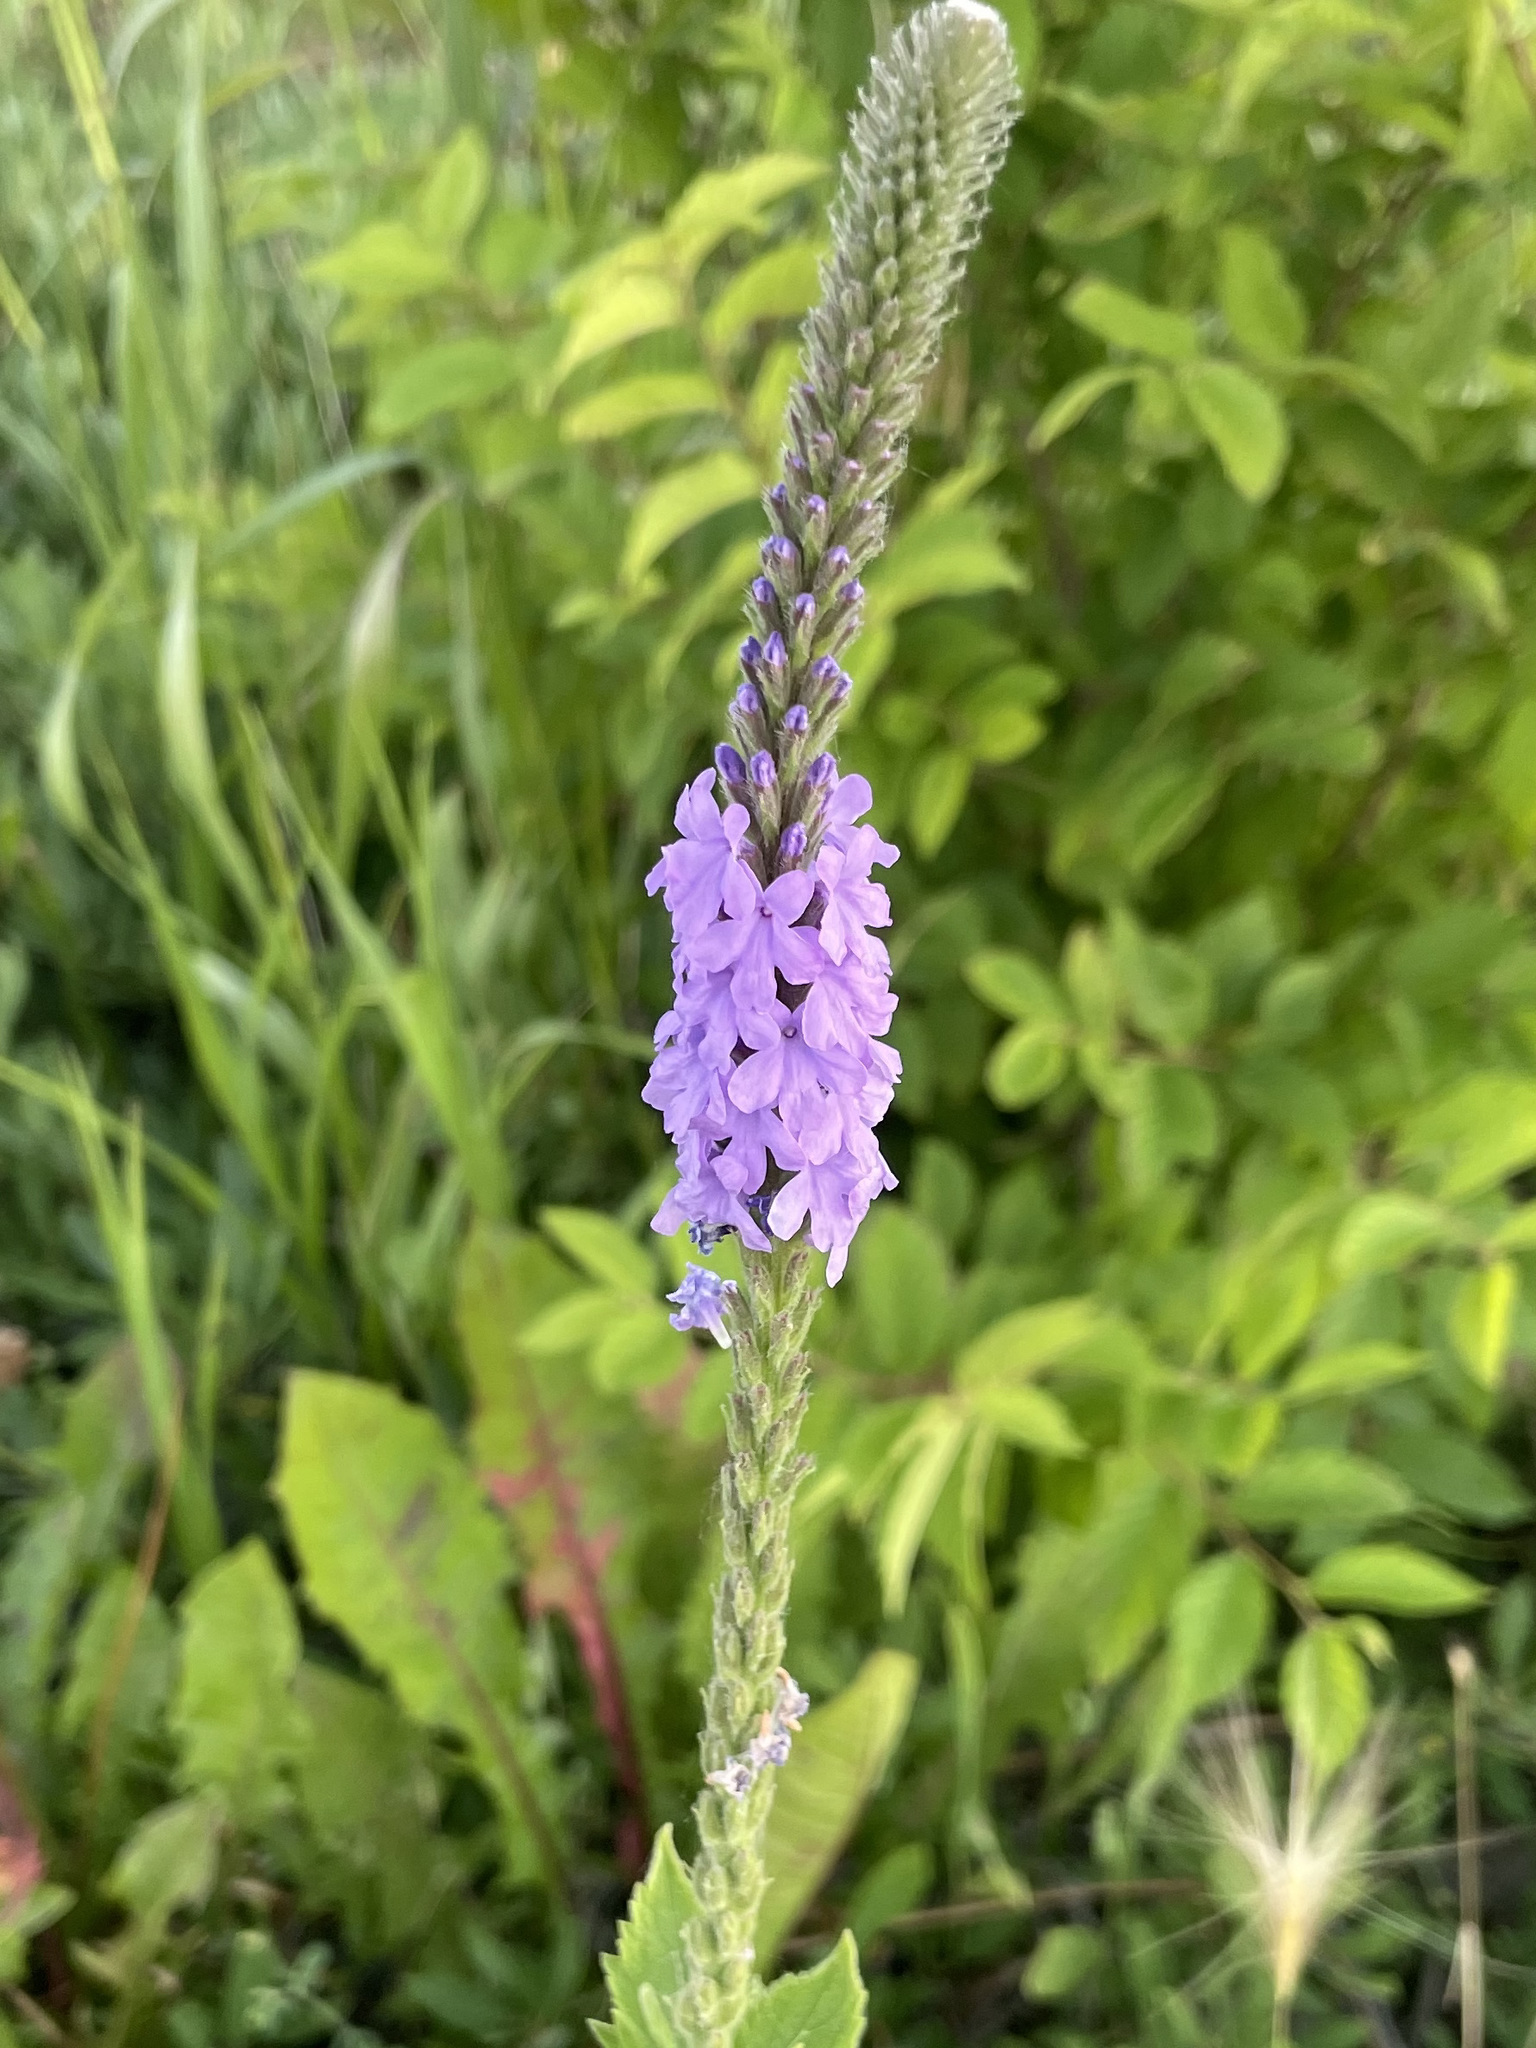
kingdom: Plantae
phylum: Tracheophyta
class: Magnoliopsida
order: Lamiales
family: Verbenaceae
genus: Verbena
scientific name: Verbena stricta
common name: Hoary vervain
